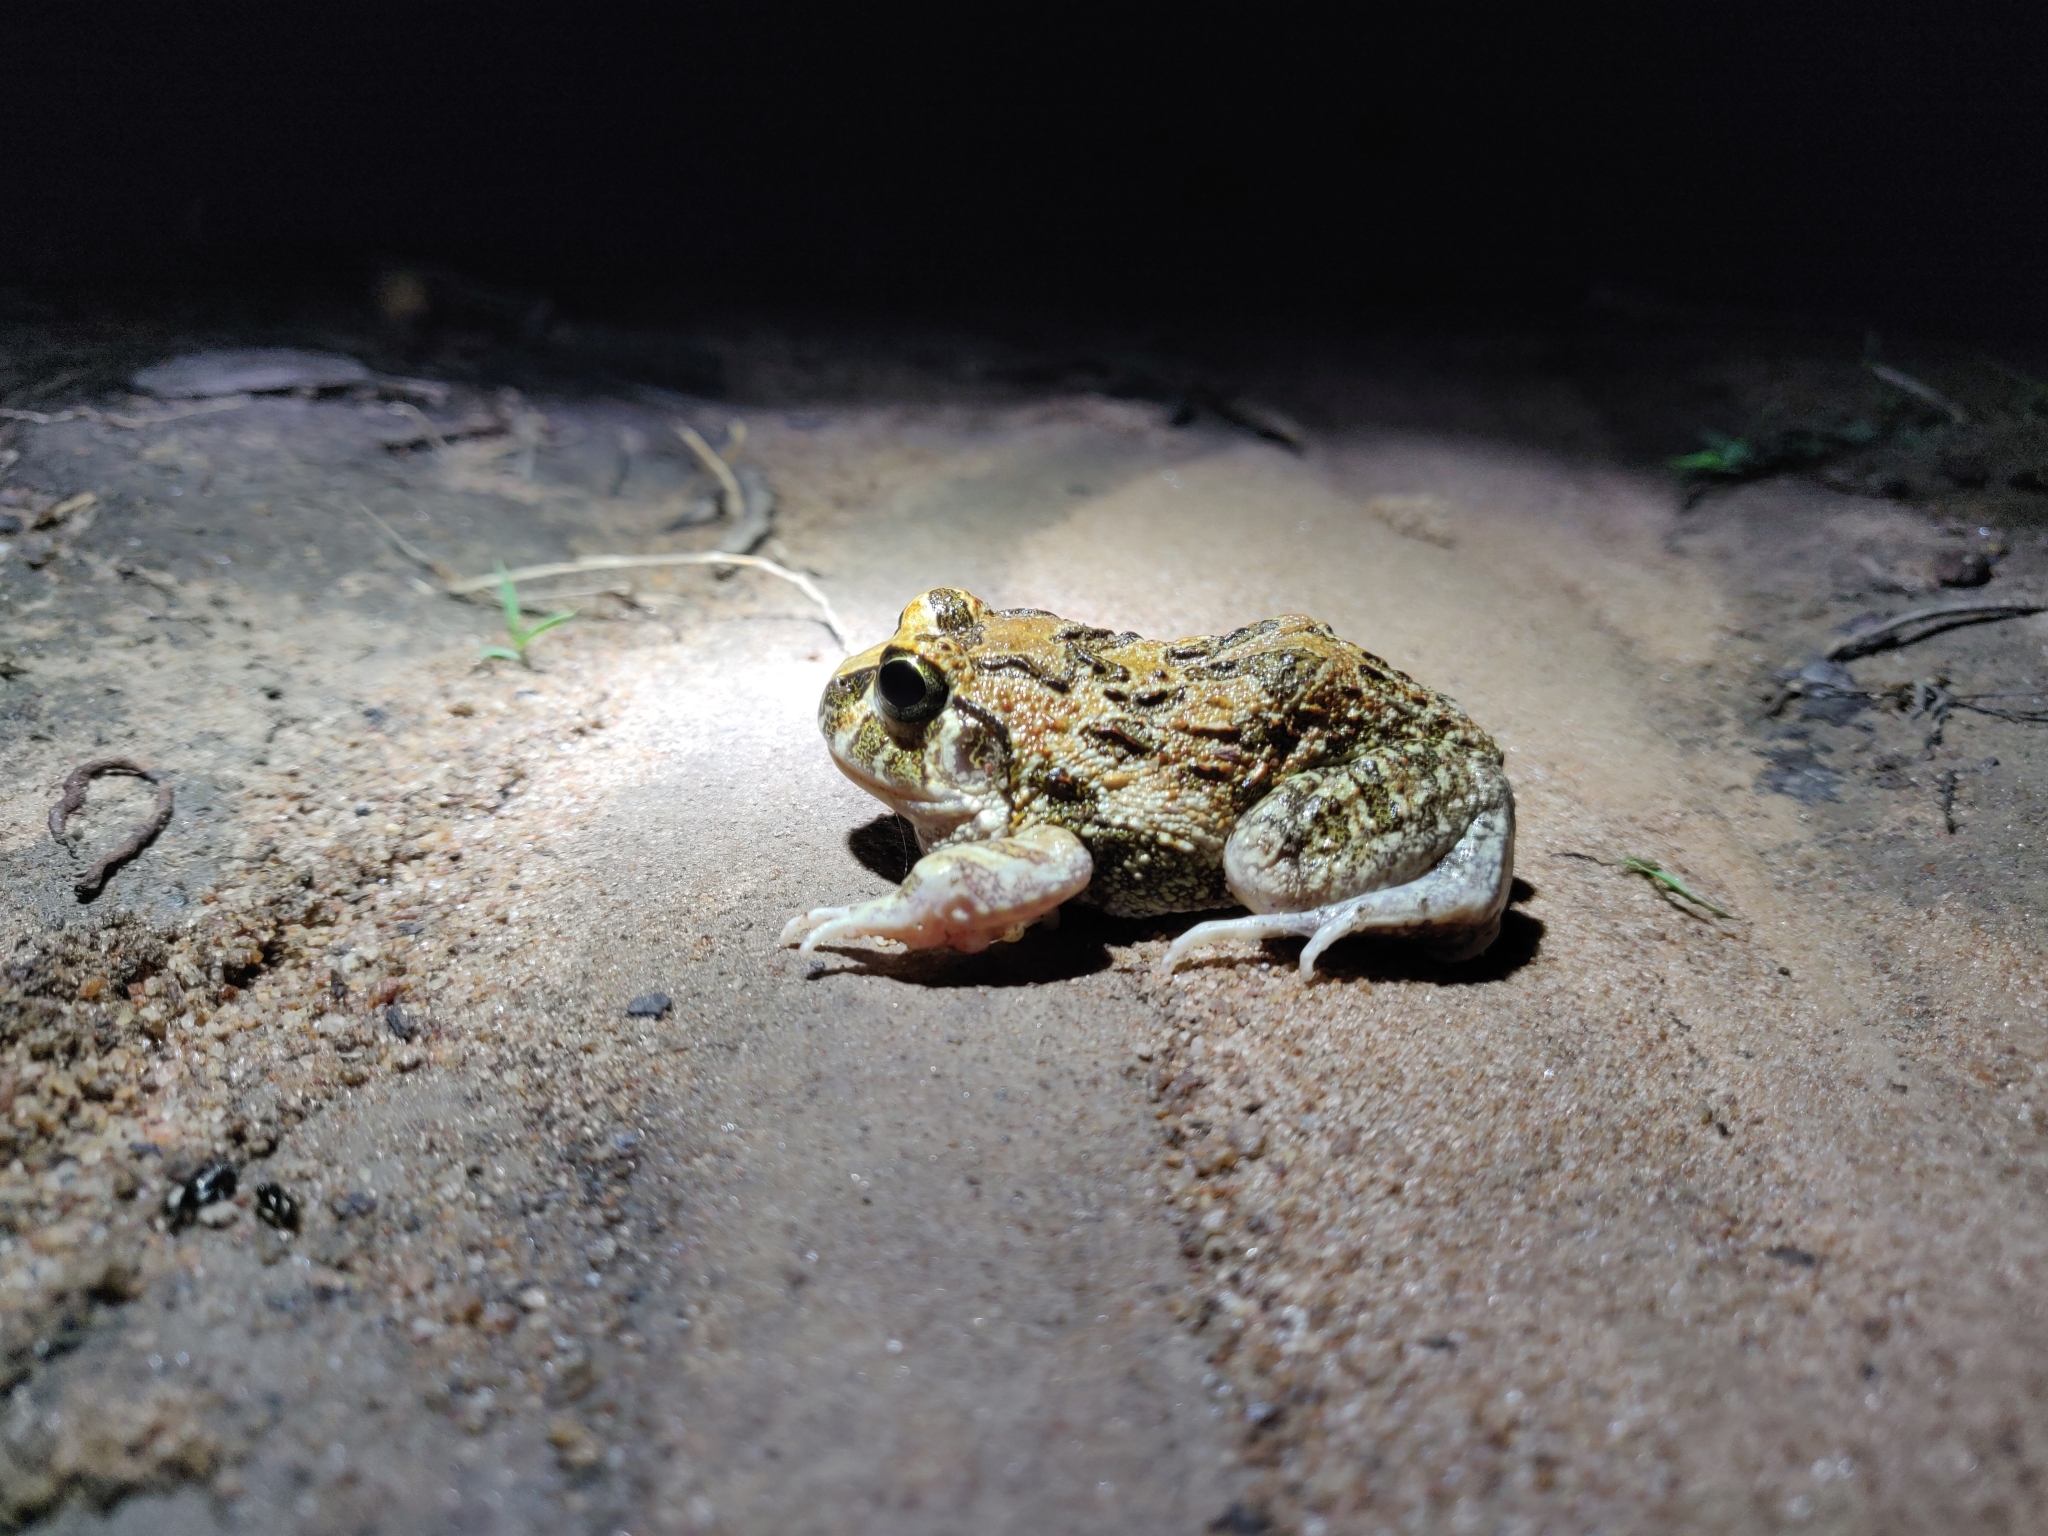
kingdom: Animalia
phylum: Chordata
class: Amphibia
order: Anura
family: Dicroglossidae
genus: Sphaerotheca
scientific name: Sphaerotheca bengaluru
